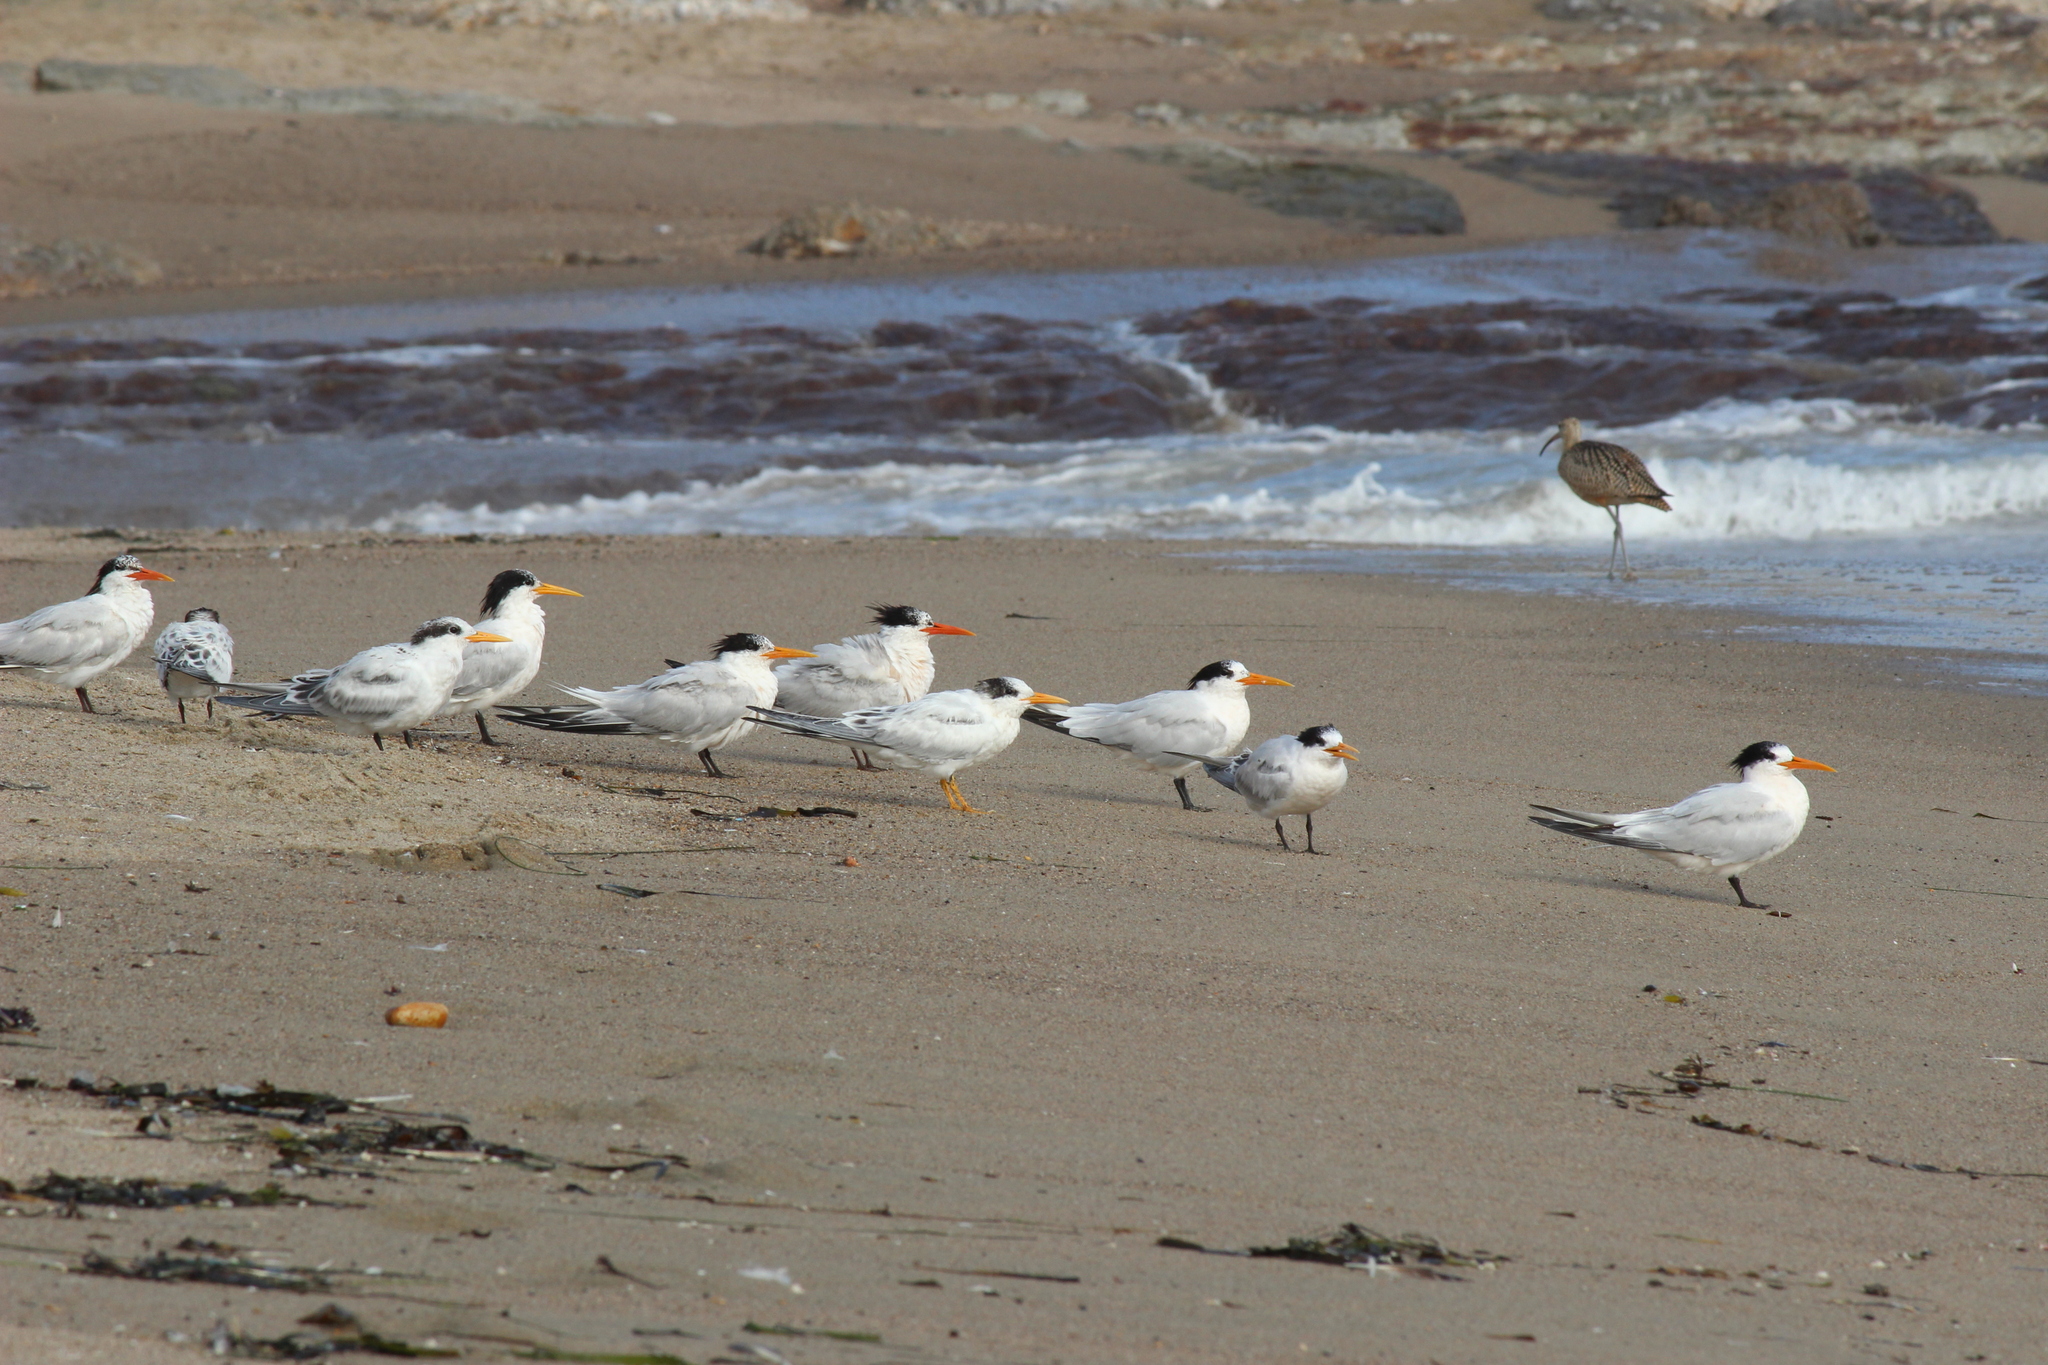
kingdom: Animalia
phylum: Chordata
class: Aves
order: Charadriiformes
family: Laridae
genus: Thalasseus
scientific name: Thalasseus elegans
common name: Elegant tern
